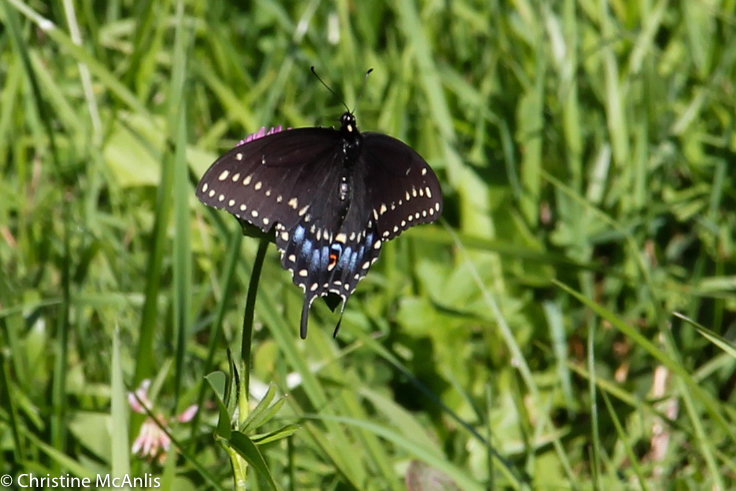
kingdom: Animalia
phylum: Arthropoda
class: Insecta
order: Lepidoptera
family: Papilionidae
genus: Papilio
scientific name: Papilio polyxenes
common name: Black swallowtail
